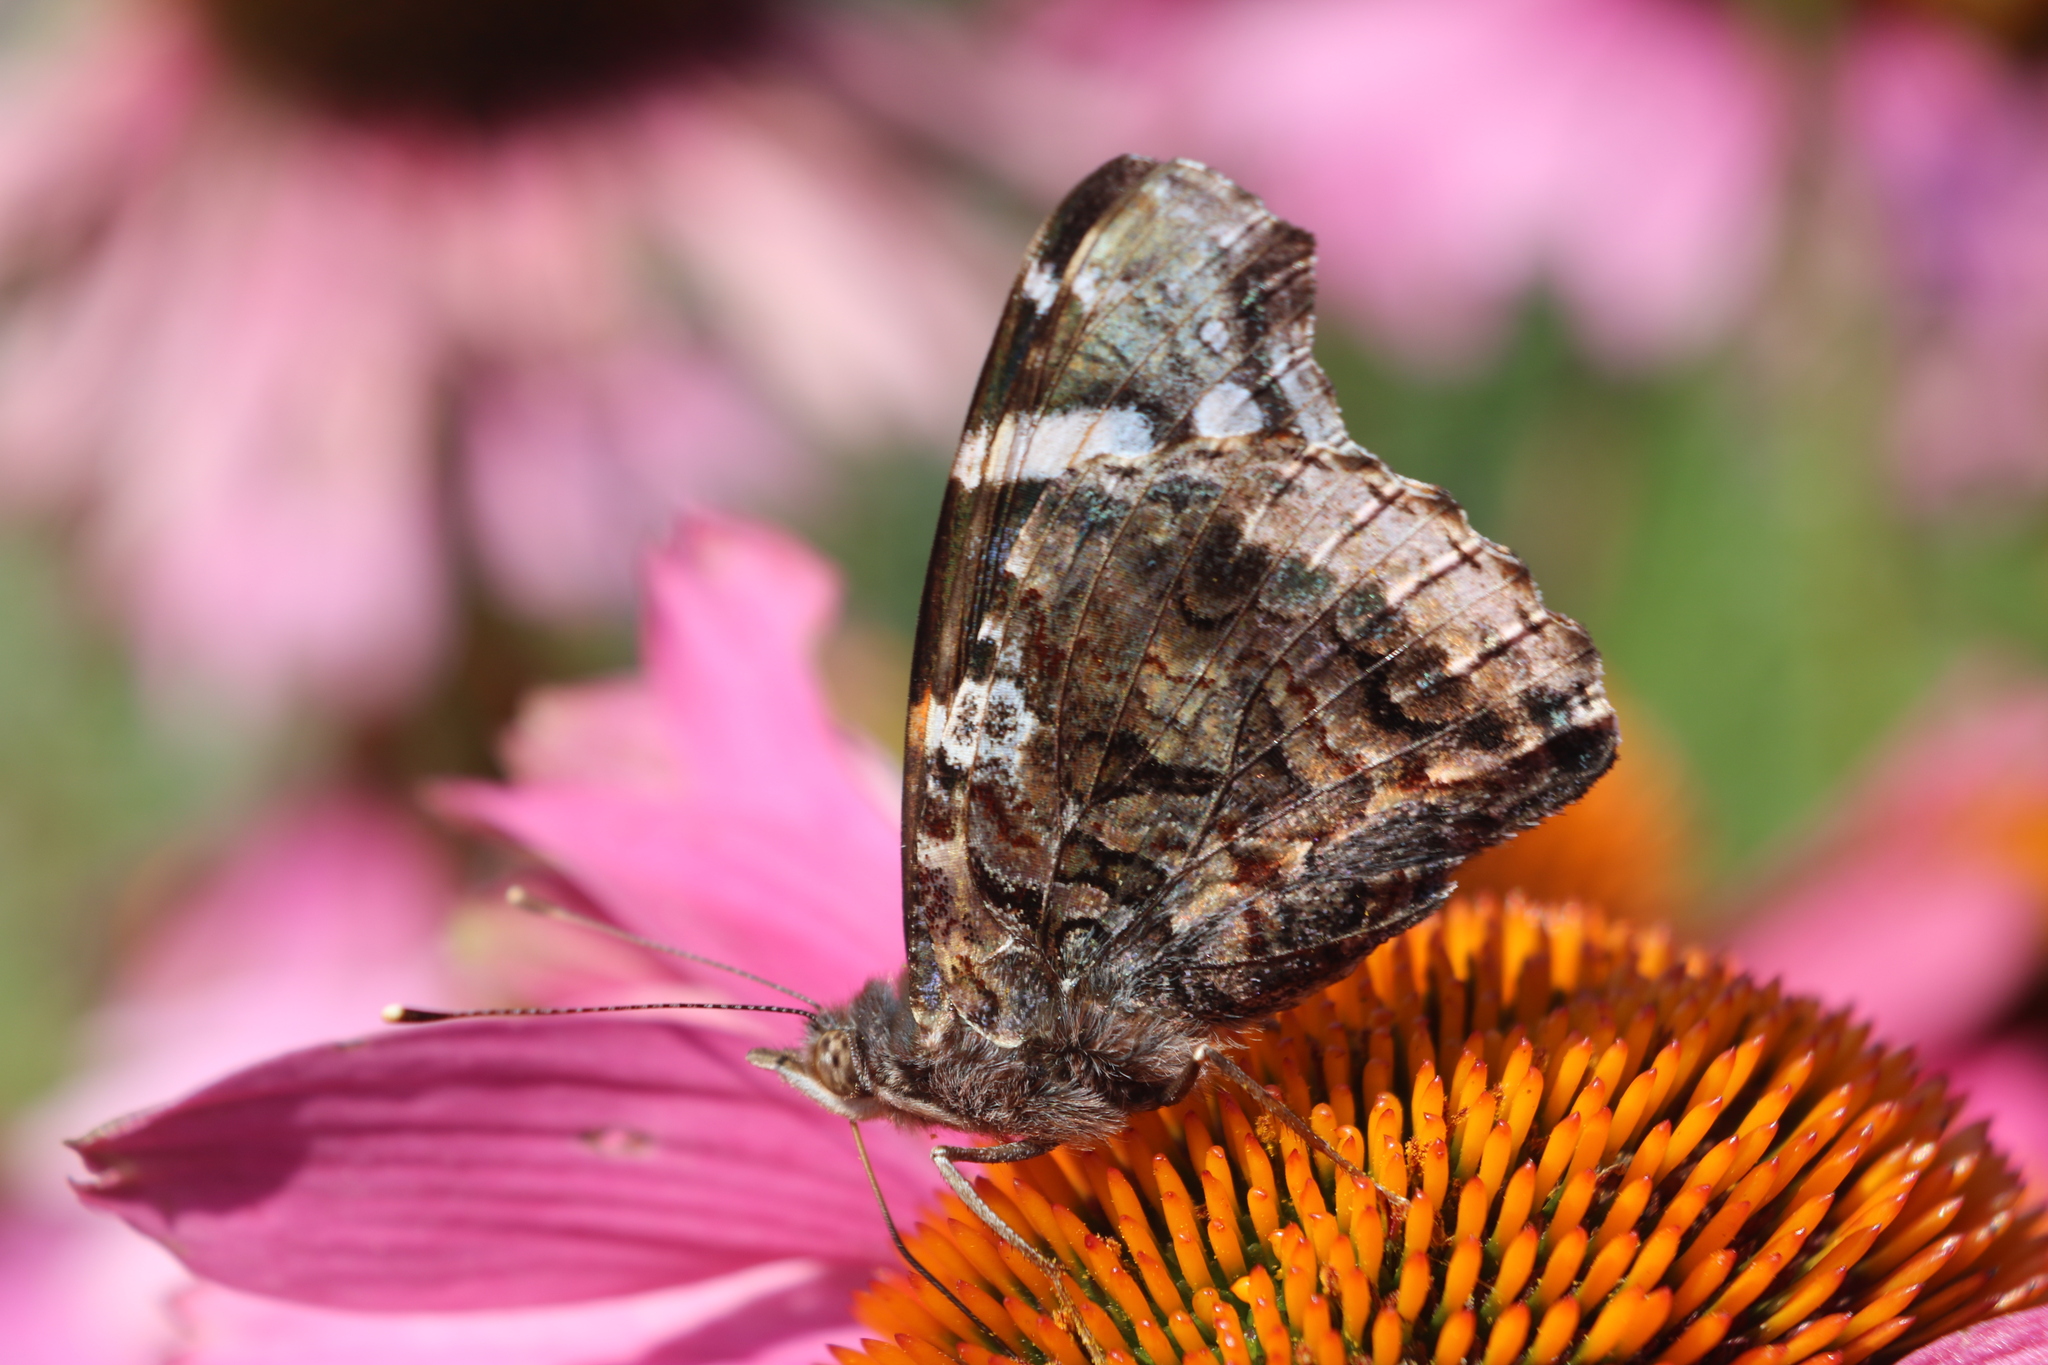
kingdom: Animalia
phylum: Arthropoda
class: Insecta
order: Lepidoptera
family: Nymphalidae
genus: Vanessa
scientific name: Vanessa atalanta
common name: Red admiral
